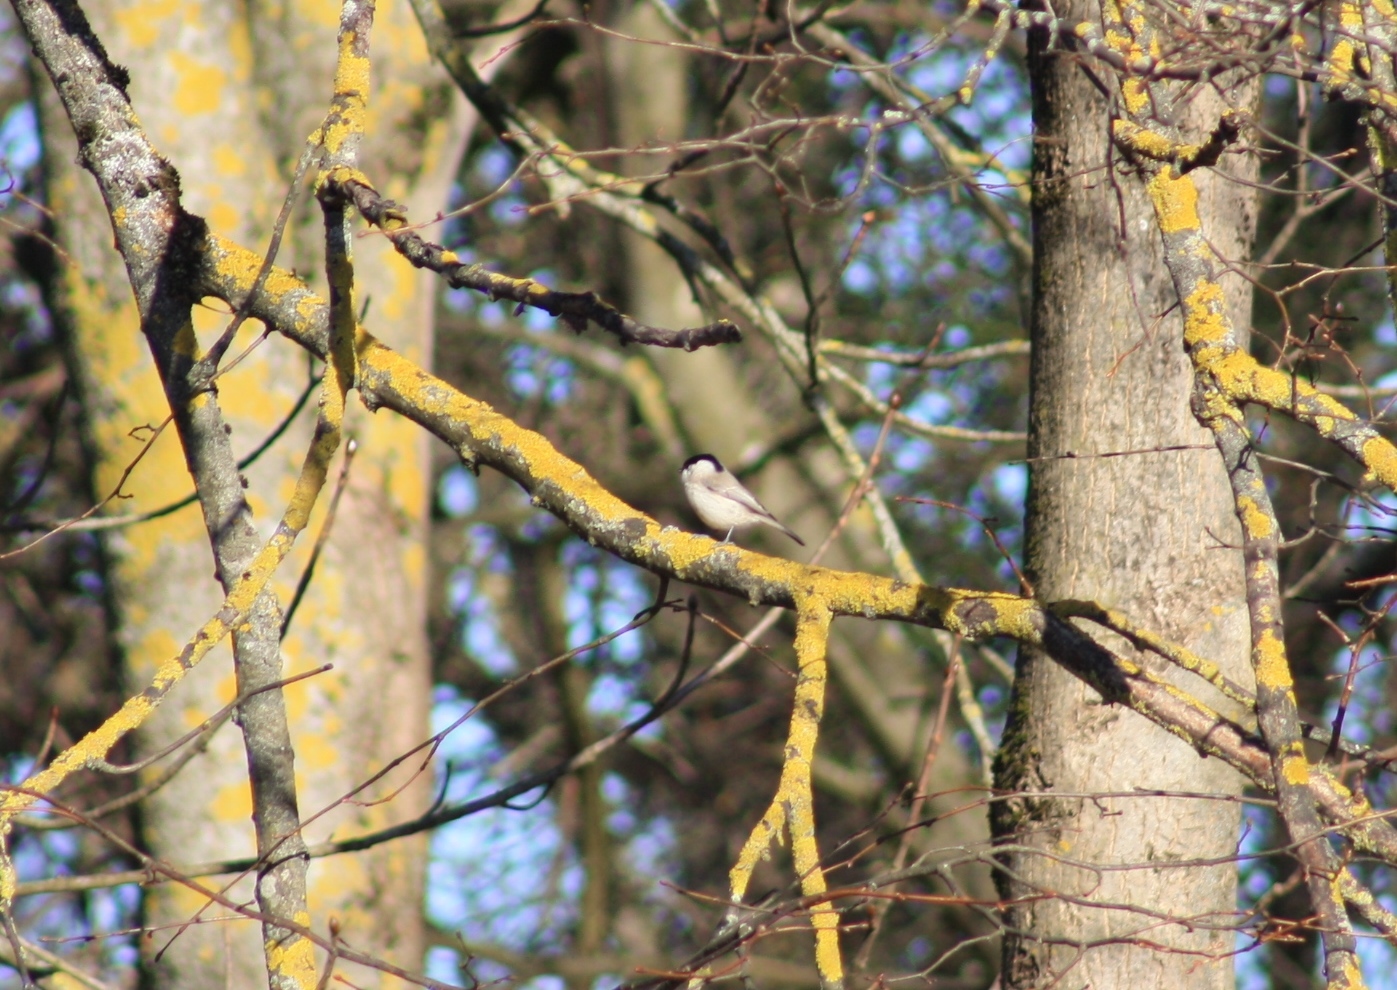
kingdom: Animalia
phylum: Chordata
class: Aves
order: Passeriformes
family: Paridae
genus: Poecile
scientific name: Poecile palustris
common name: Marsh tit
